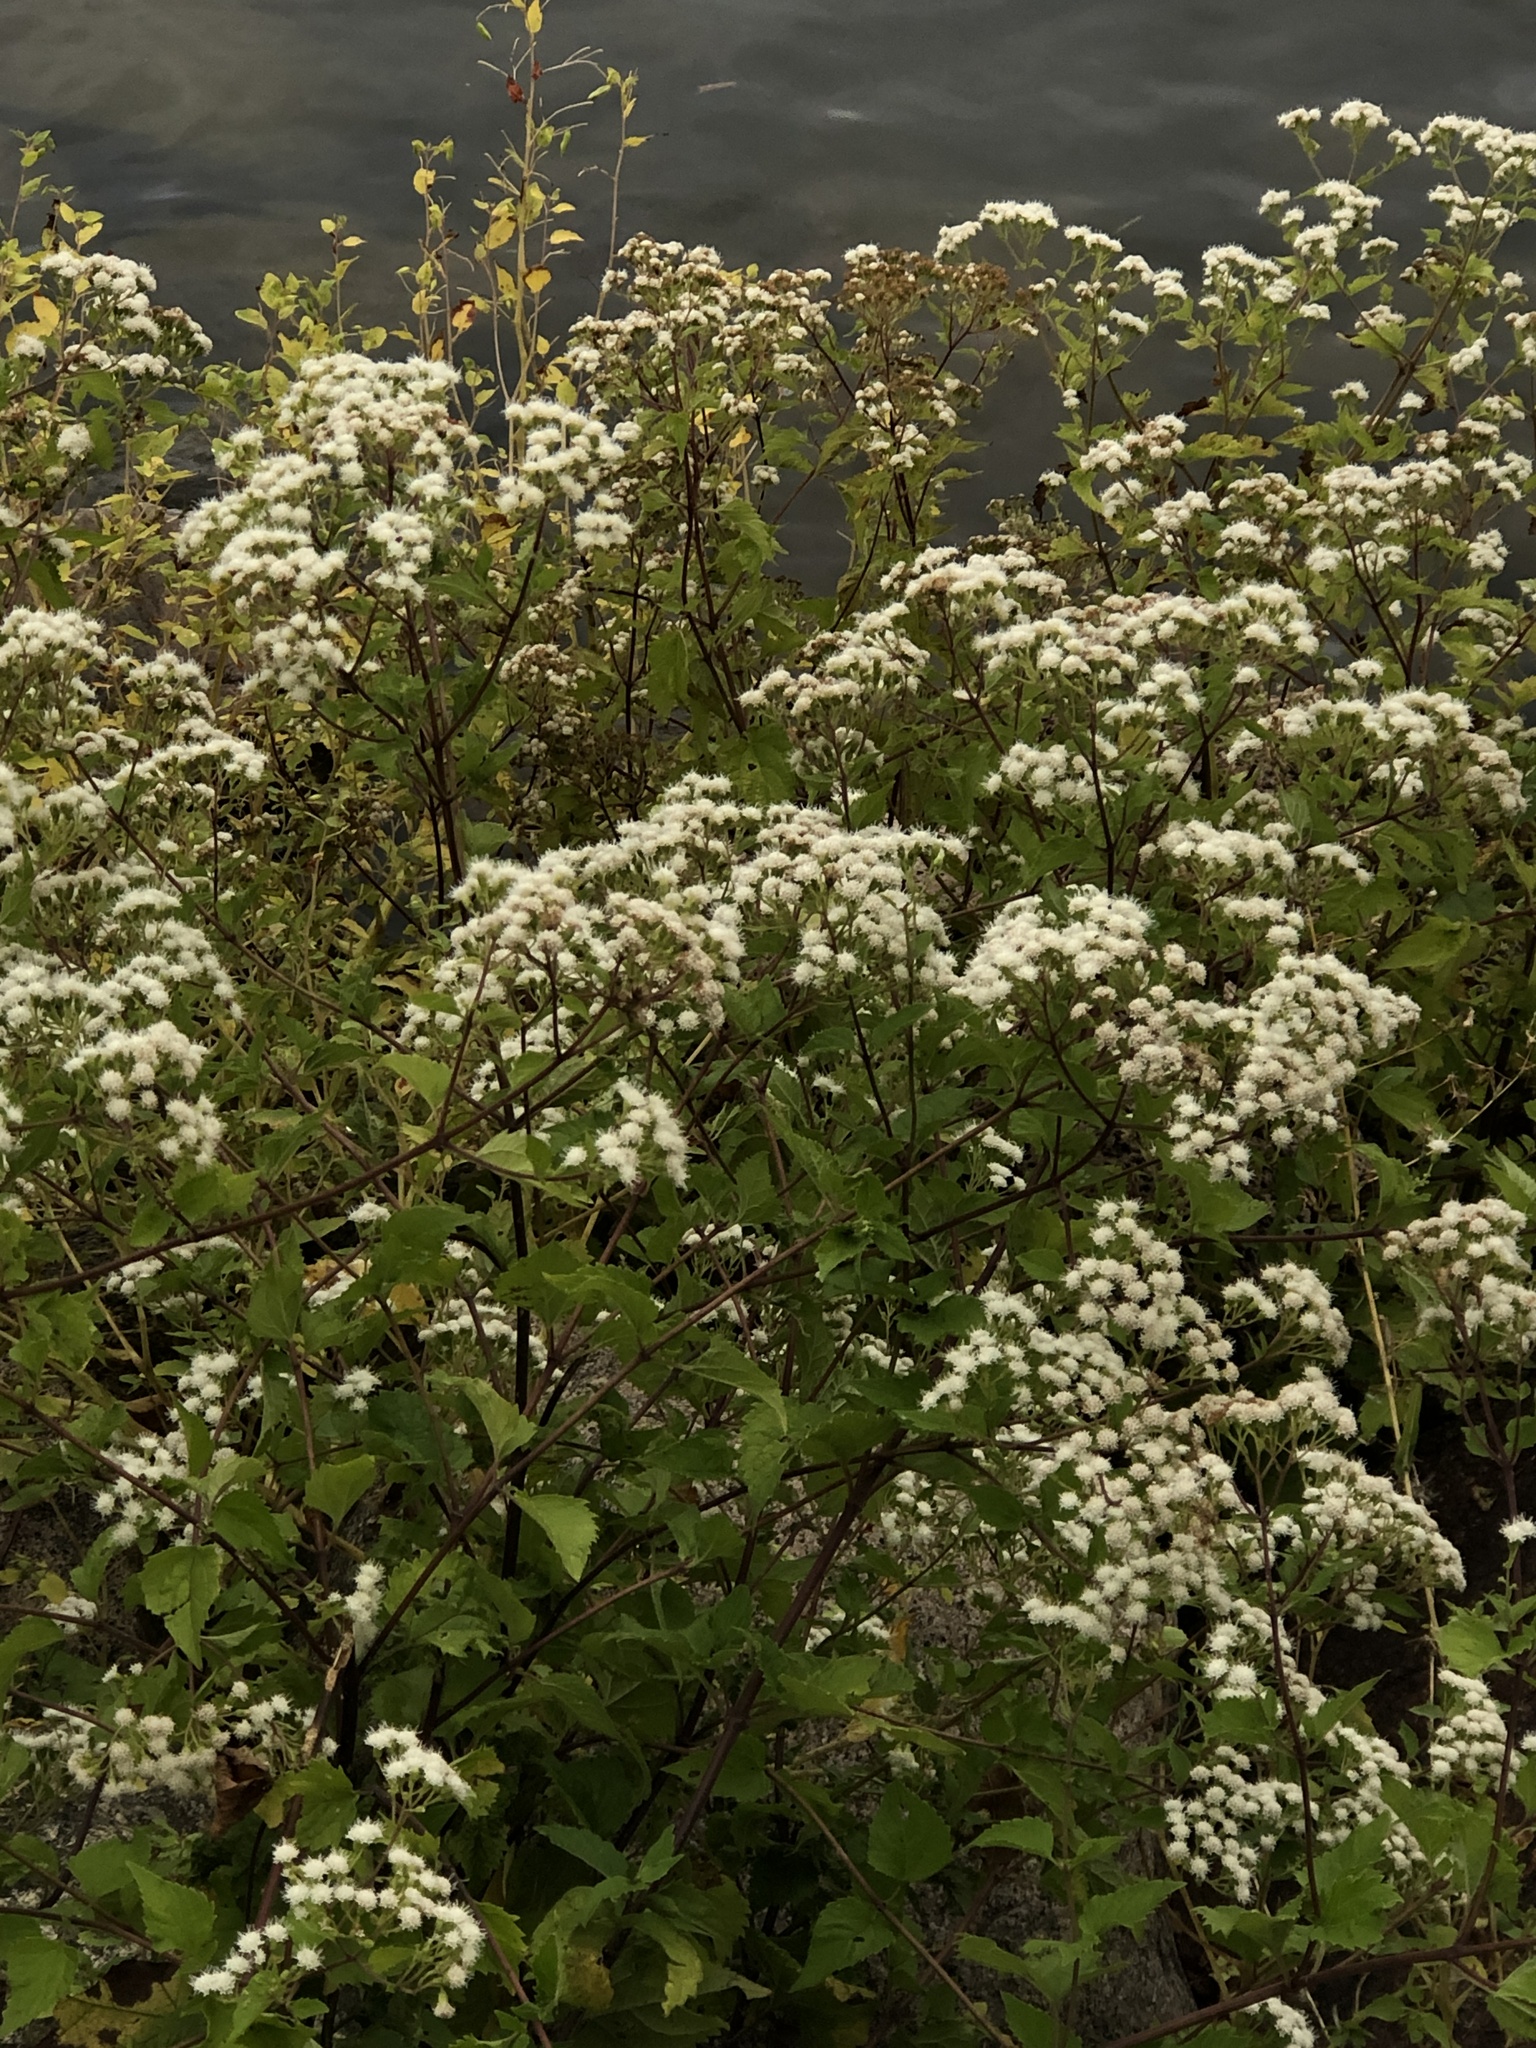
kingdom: Plantae
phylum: Tracheophyta
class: Magnoliopsida
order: Asterales
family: Asteraceae
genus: Ageratina
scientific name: Ageratina altissima
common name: White snakeroot
